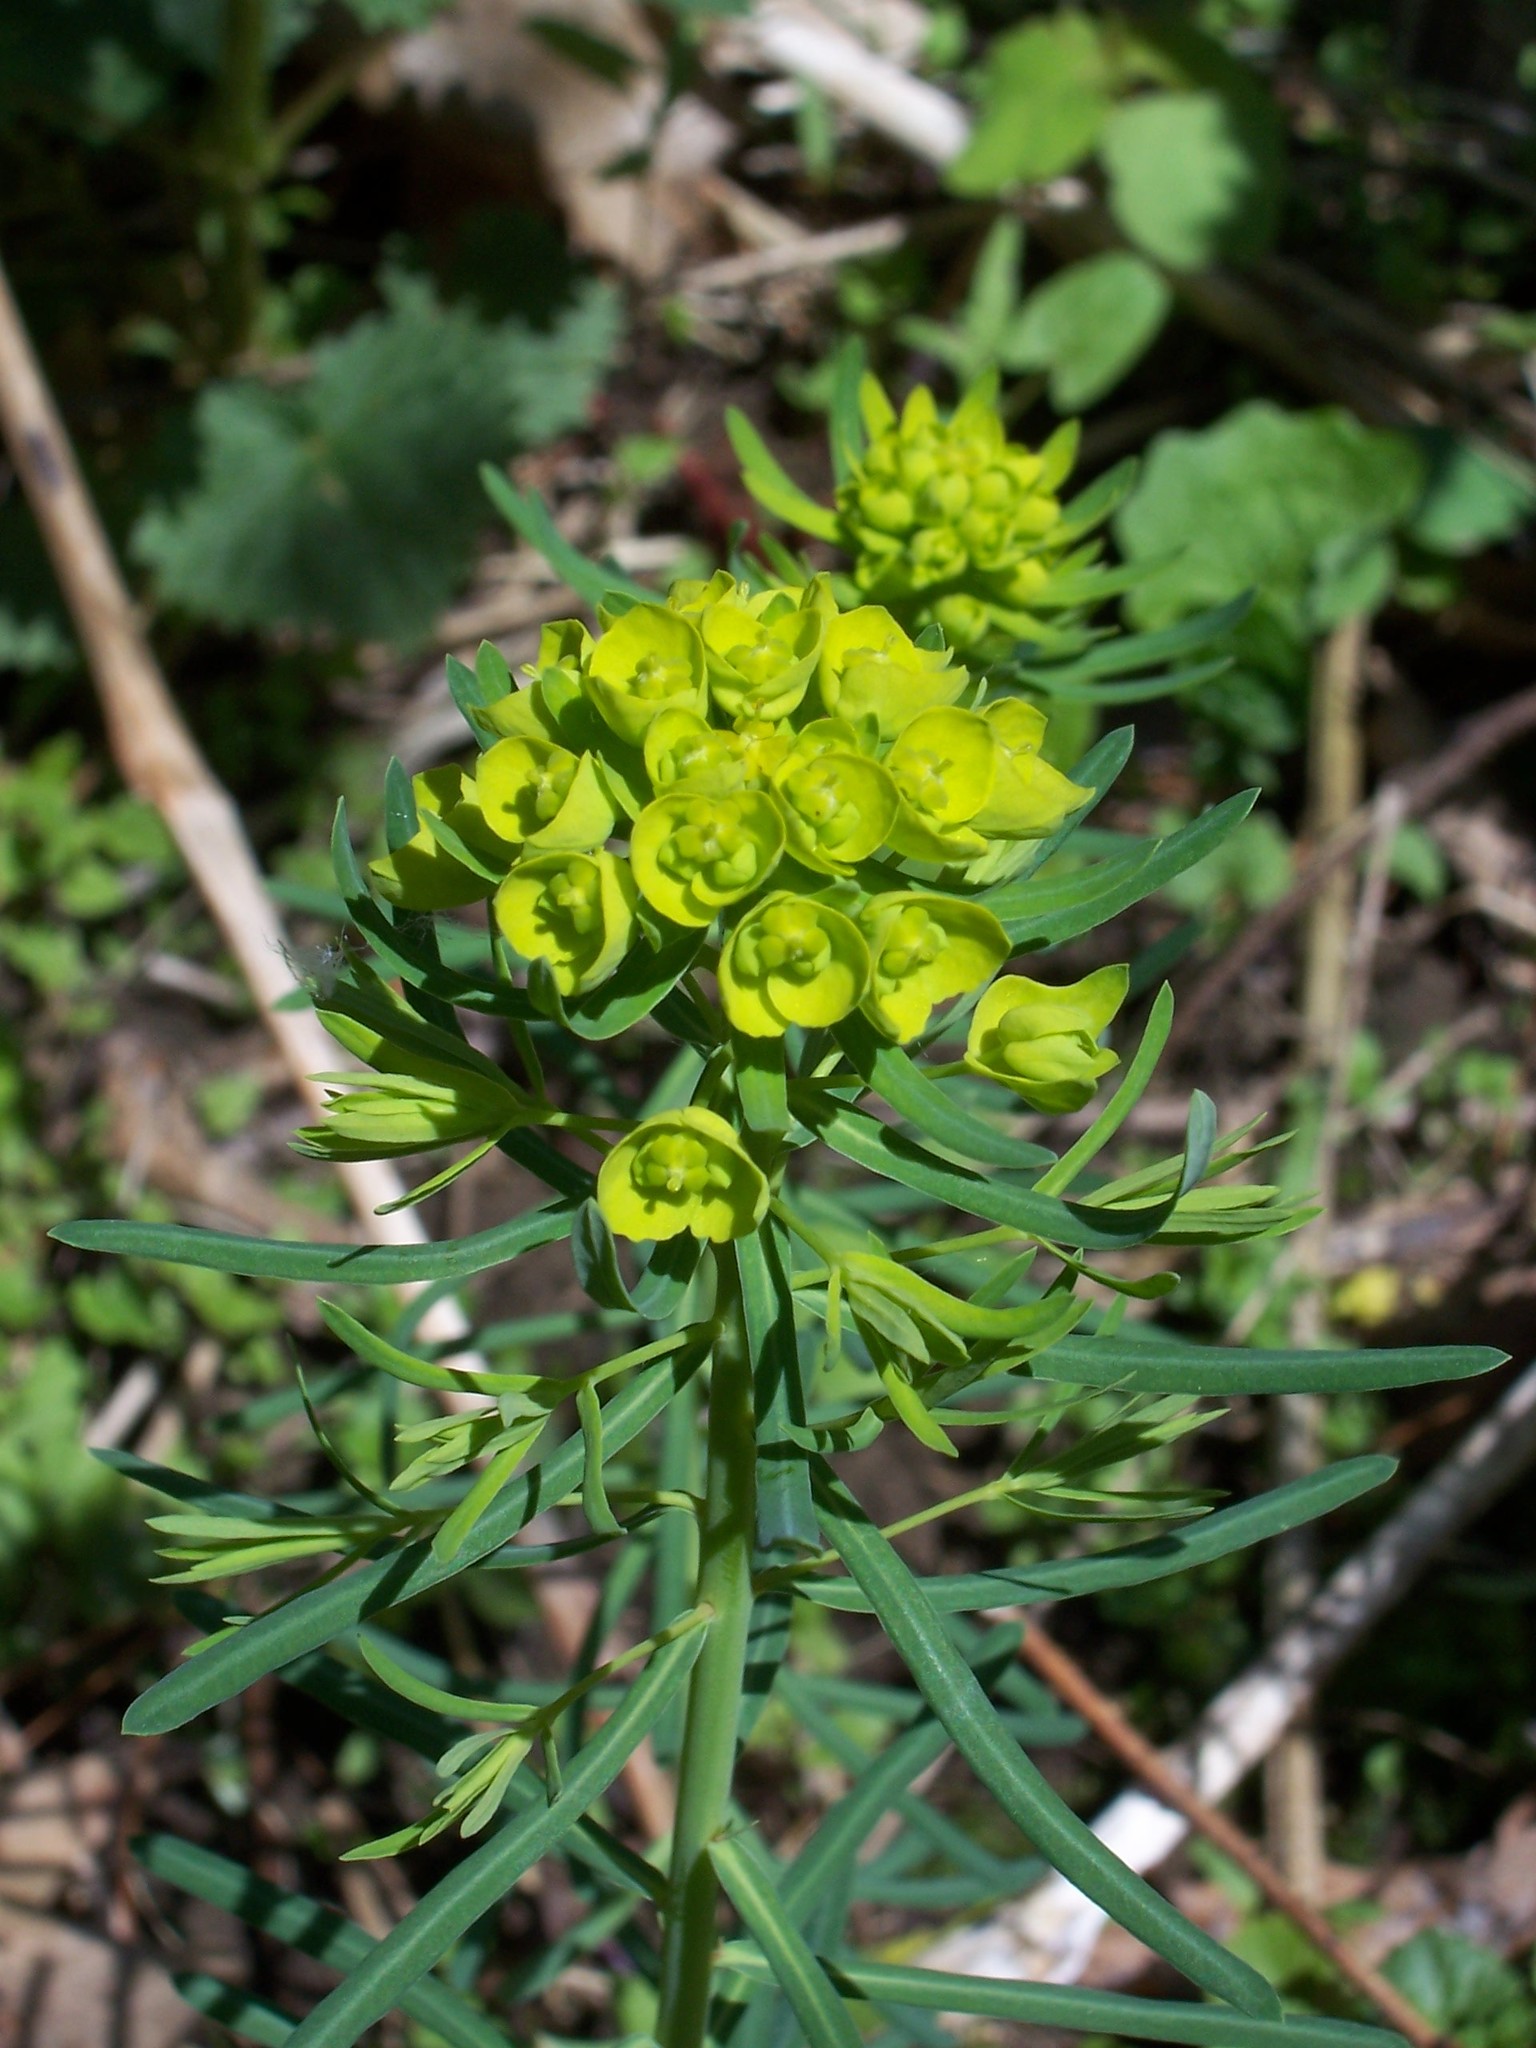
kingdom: Plantae
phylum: Tracheophyta
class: Magnoliopsida
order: Malpighiales
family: Euphorbiaceae
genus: Euphorbia
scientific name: Euphorbia cyparissias
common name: Cypress spurge
